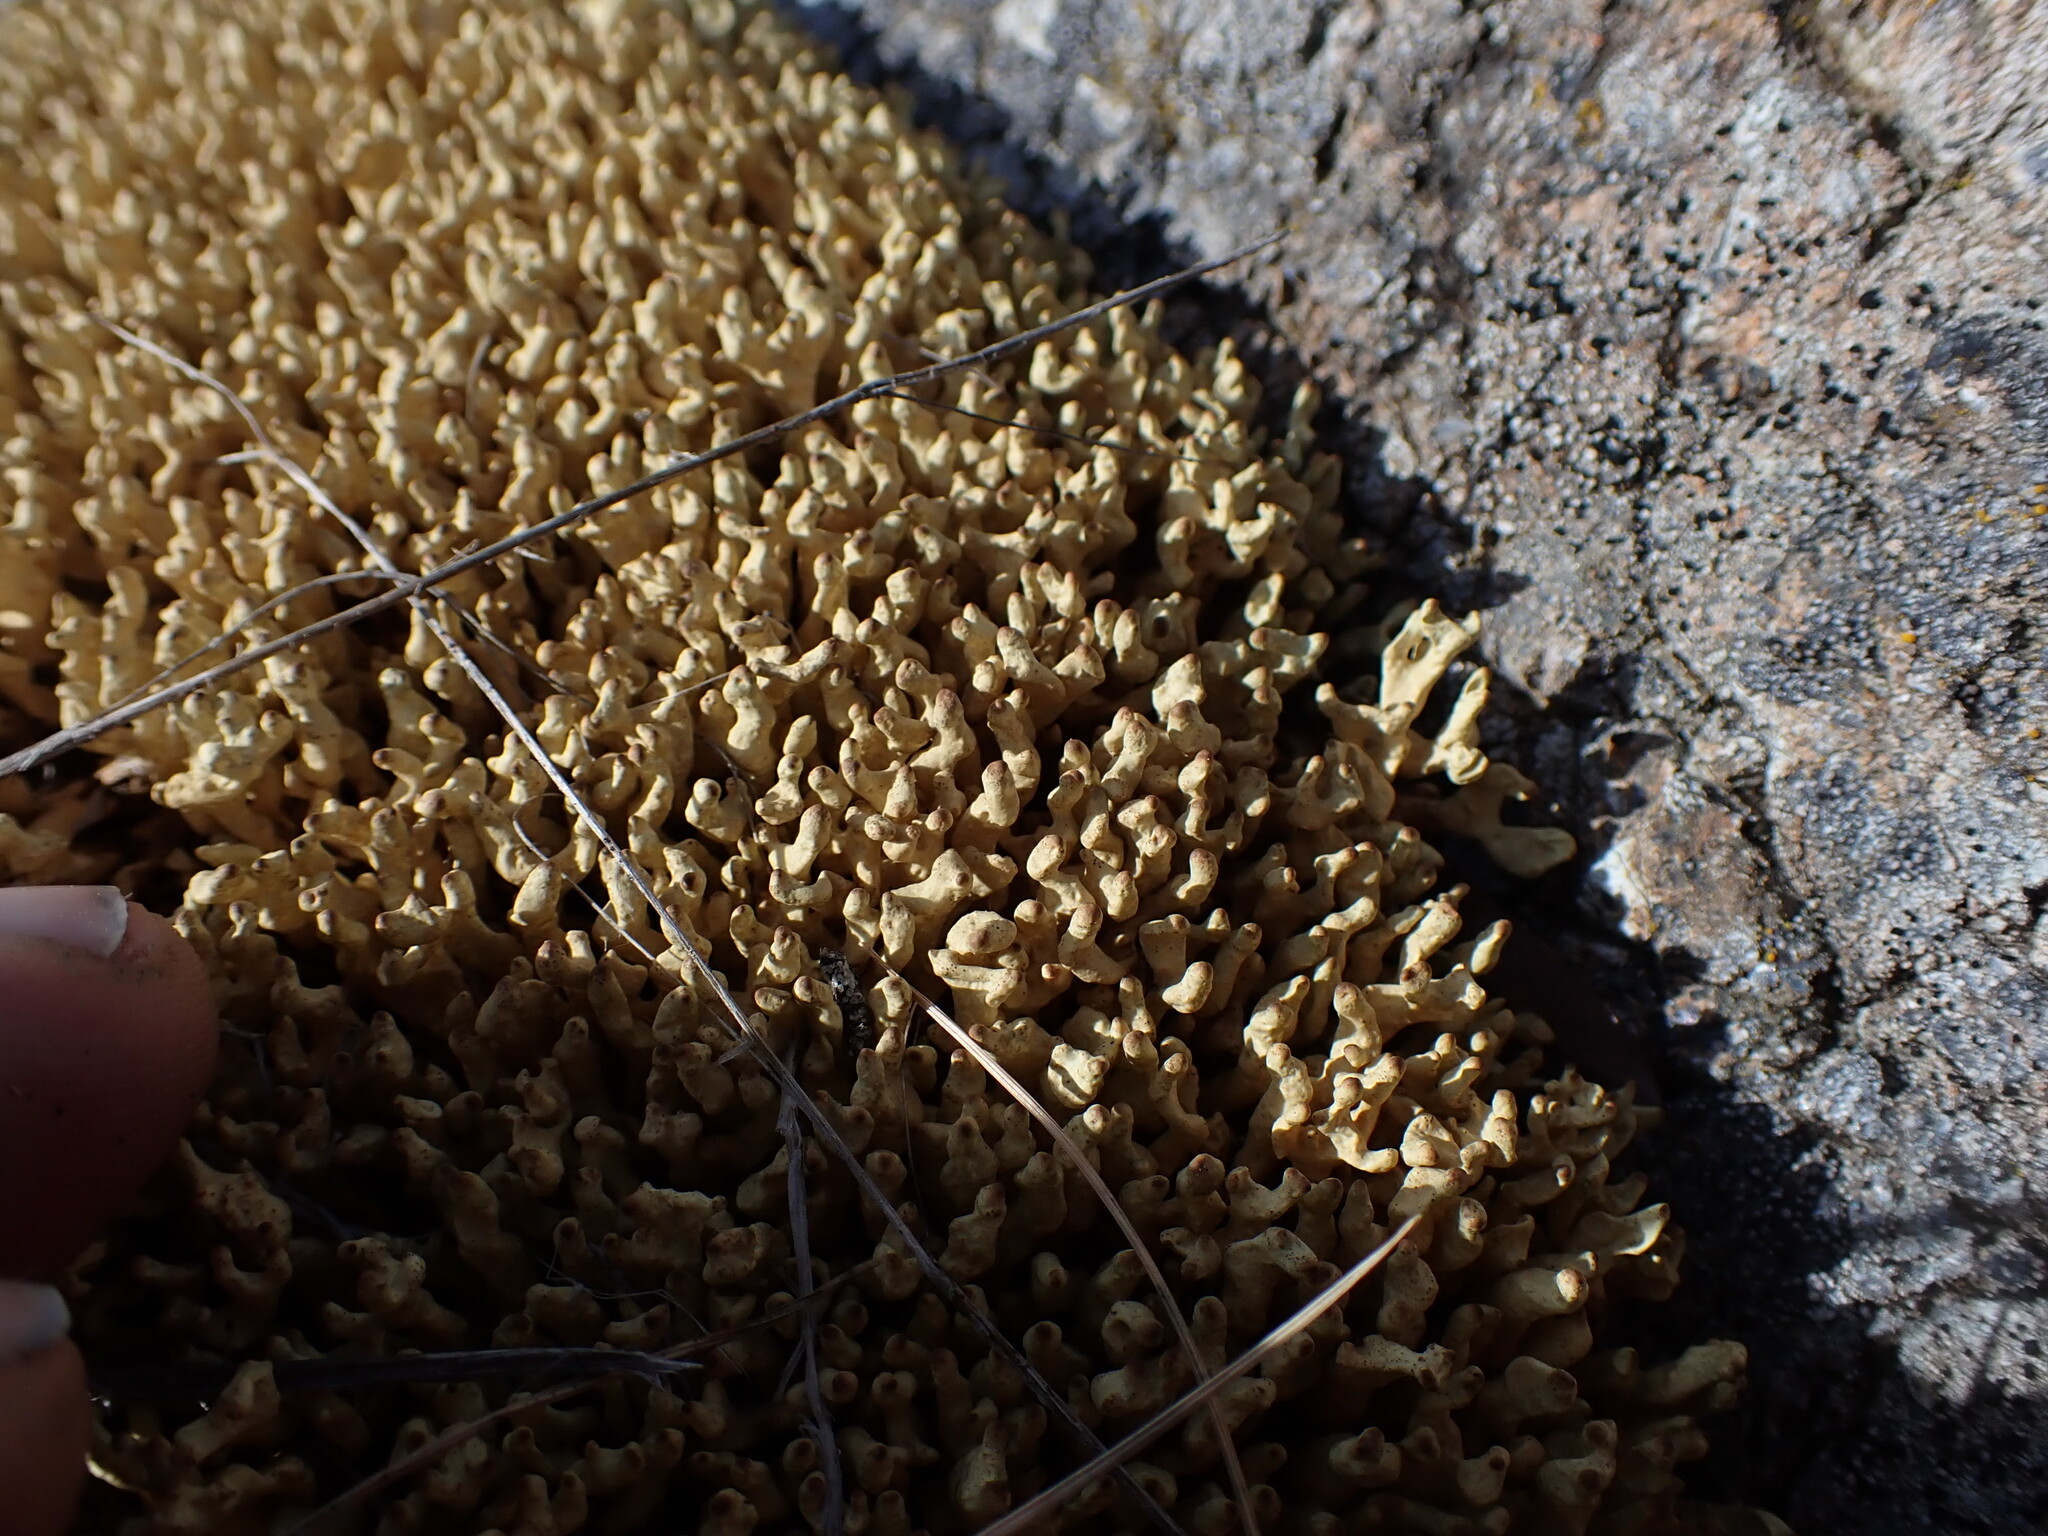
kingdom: Fungi
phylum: Ascomycota
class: Lecanoromycetes
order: Lecanorales
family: Parmeliaceae
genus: Dactylina
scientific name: Dactylina arctica
